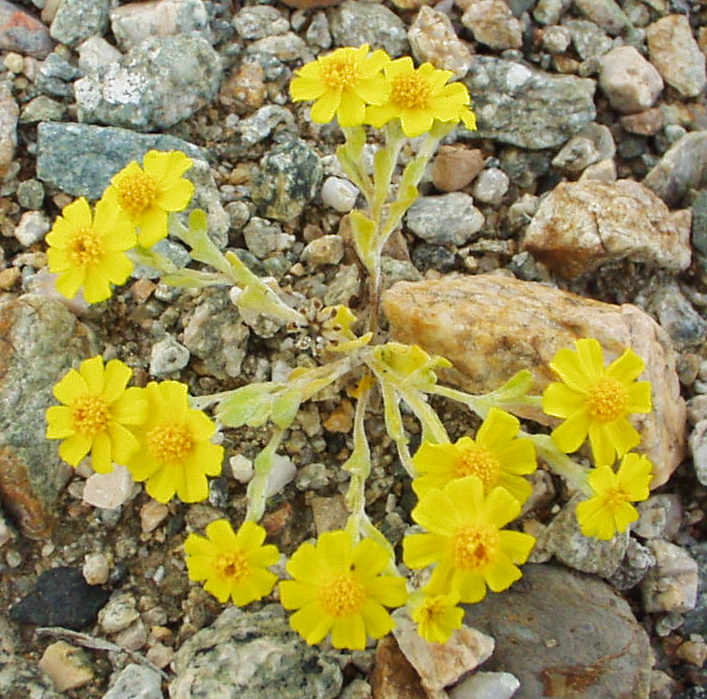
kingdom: Plantae
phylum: Tracheophyta
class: Magnoliopsida
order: Asterales
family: Asteraceae
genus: Eriophyllum
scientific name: Eriophyllum wallacei
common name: Wallace's woolly daisy
